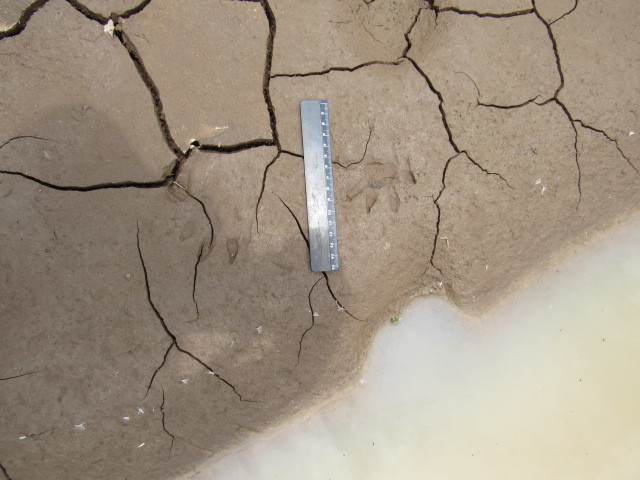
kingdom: Animalia
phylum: Chordata
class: Mammalia
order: Carnivora
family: Procyonidae
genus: Procyon
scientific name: Procyon lotor
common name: Raccoon
